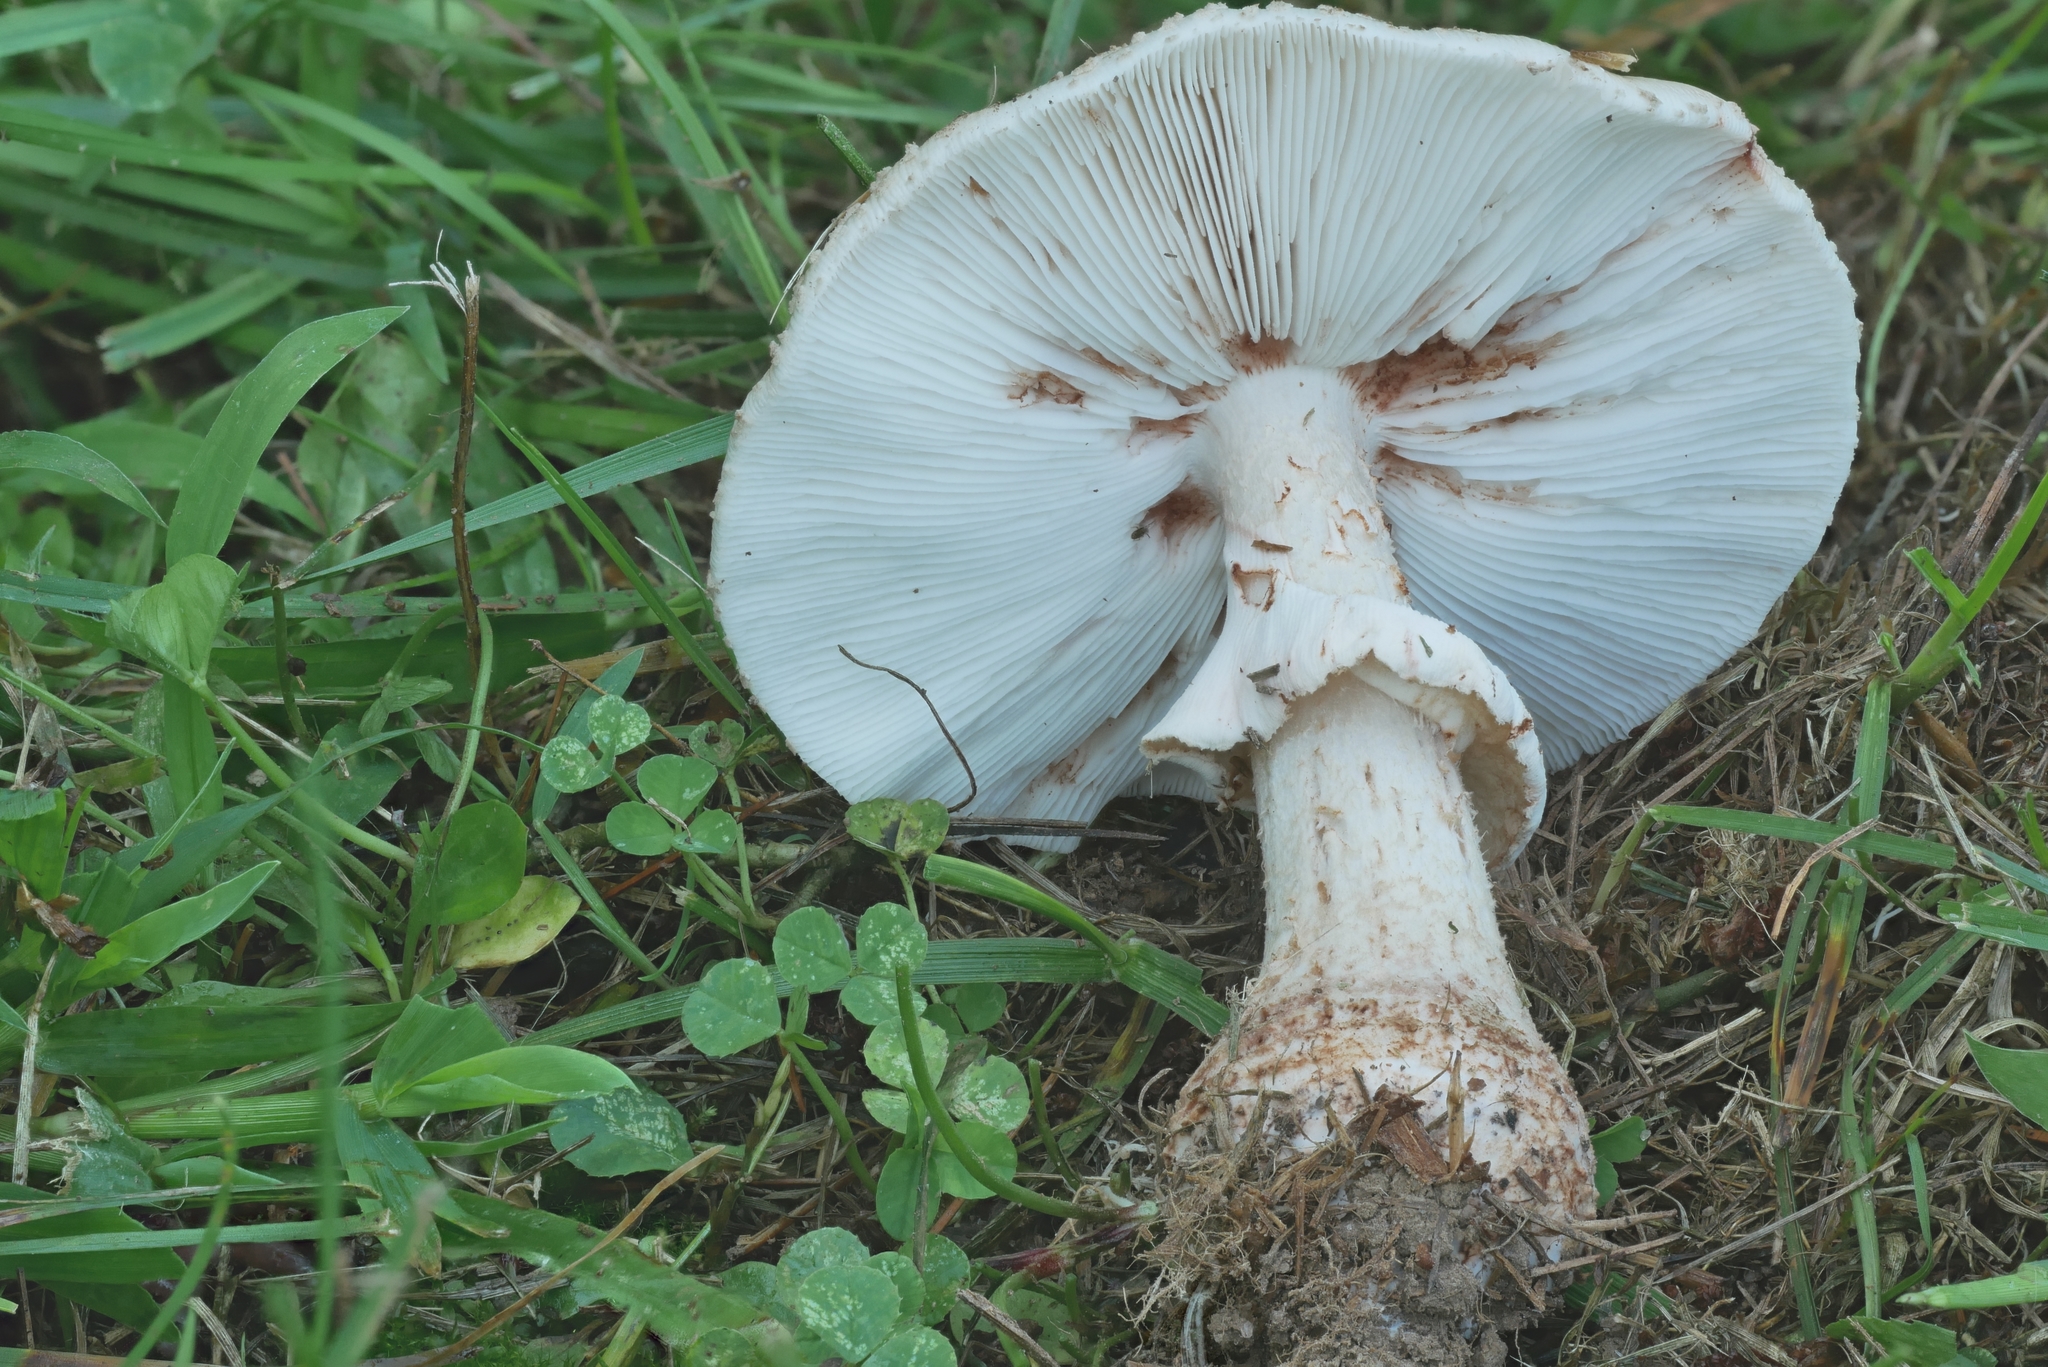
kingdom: Fungi
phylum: Basidiomycota
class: Agaricomycetes
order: Agaricales
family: Amanitaceae
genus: Amanita
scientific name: Amanita rubescens
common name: Blusher
